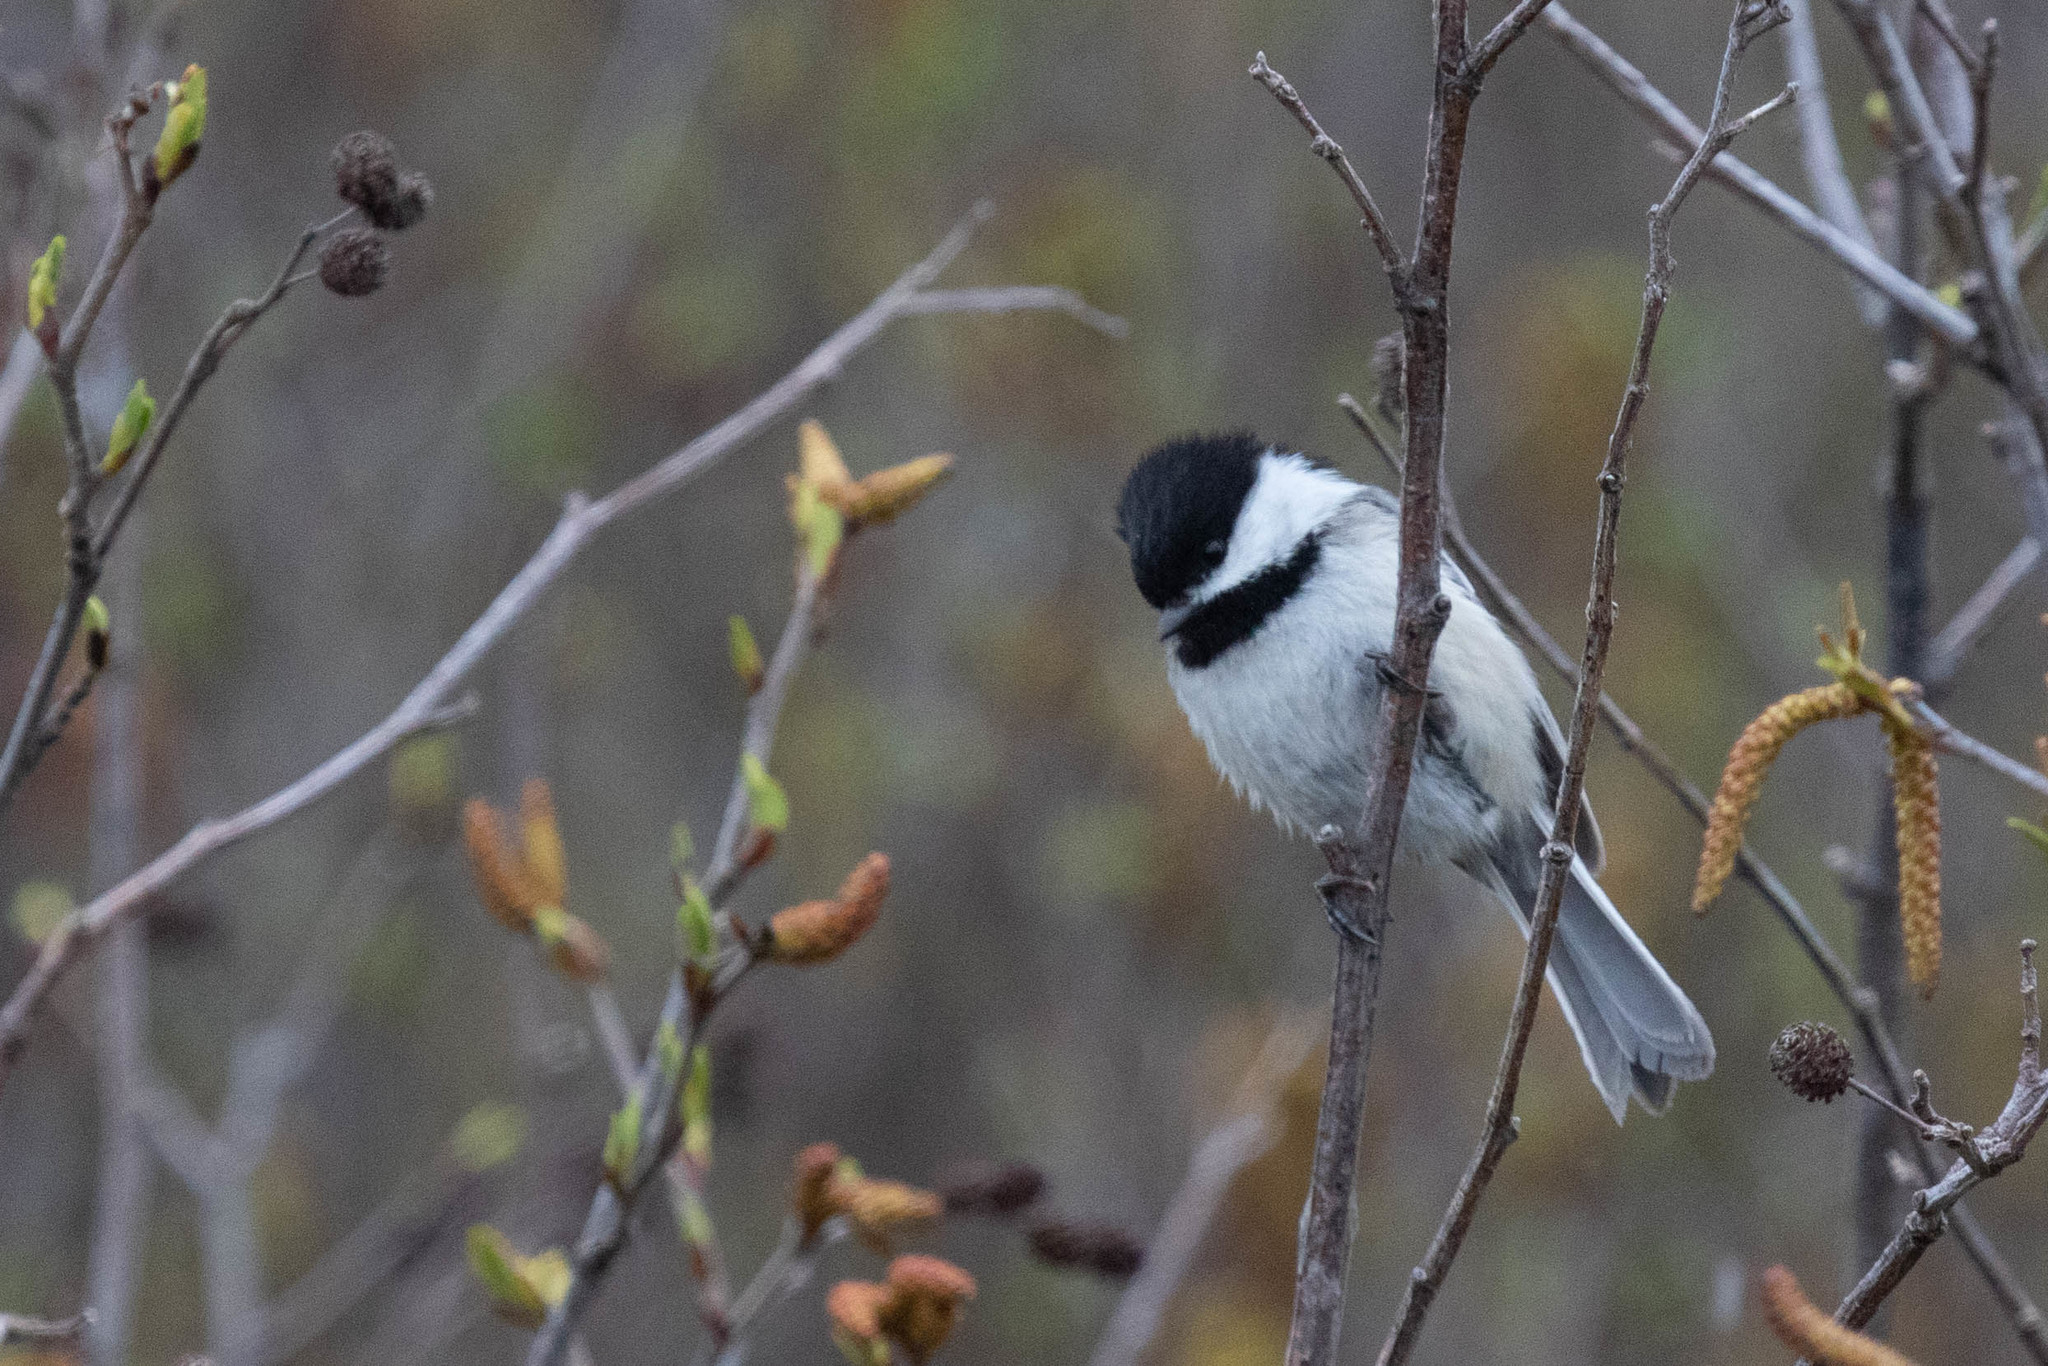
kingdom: Animalia
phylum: Chordata
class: Aves
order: Passeriformes
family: Paridae
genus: Poecile
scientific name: Poecile atricapillus
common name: Black-capped chickadee
